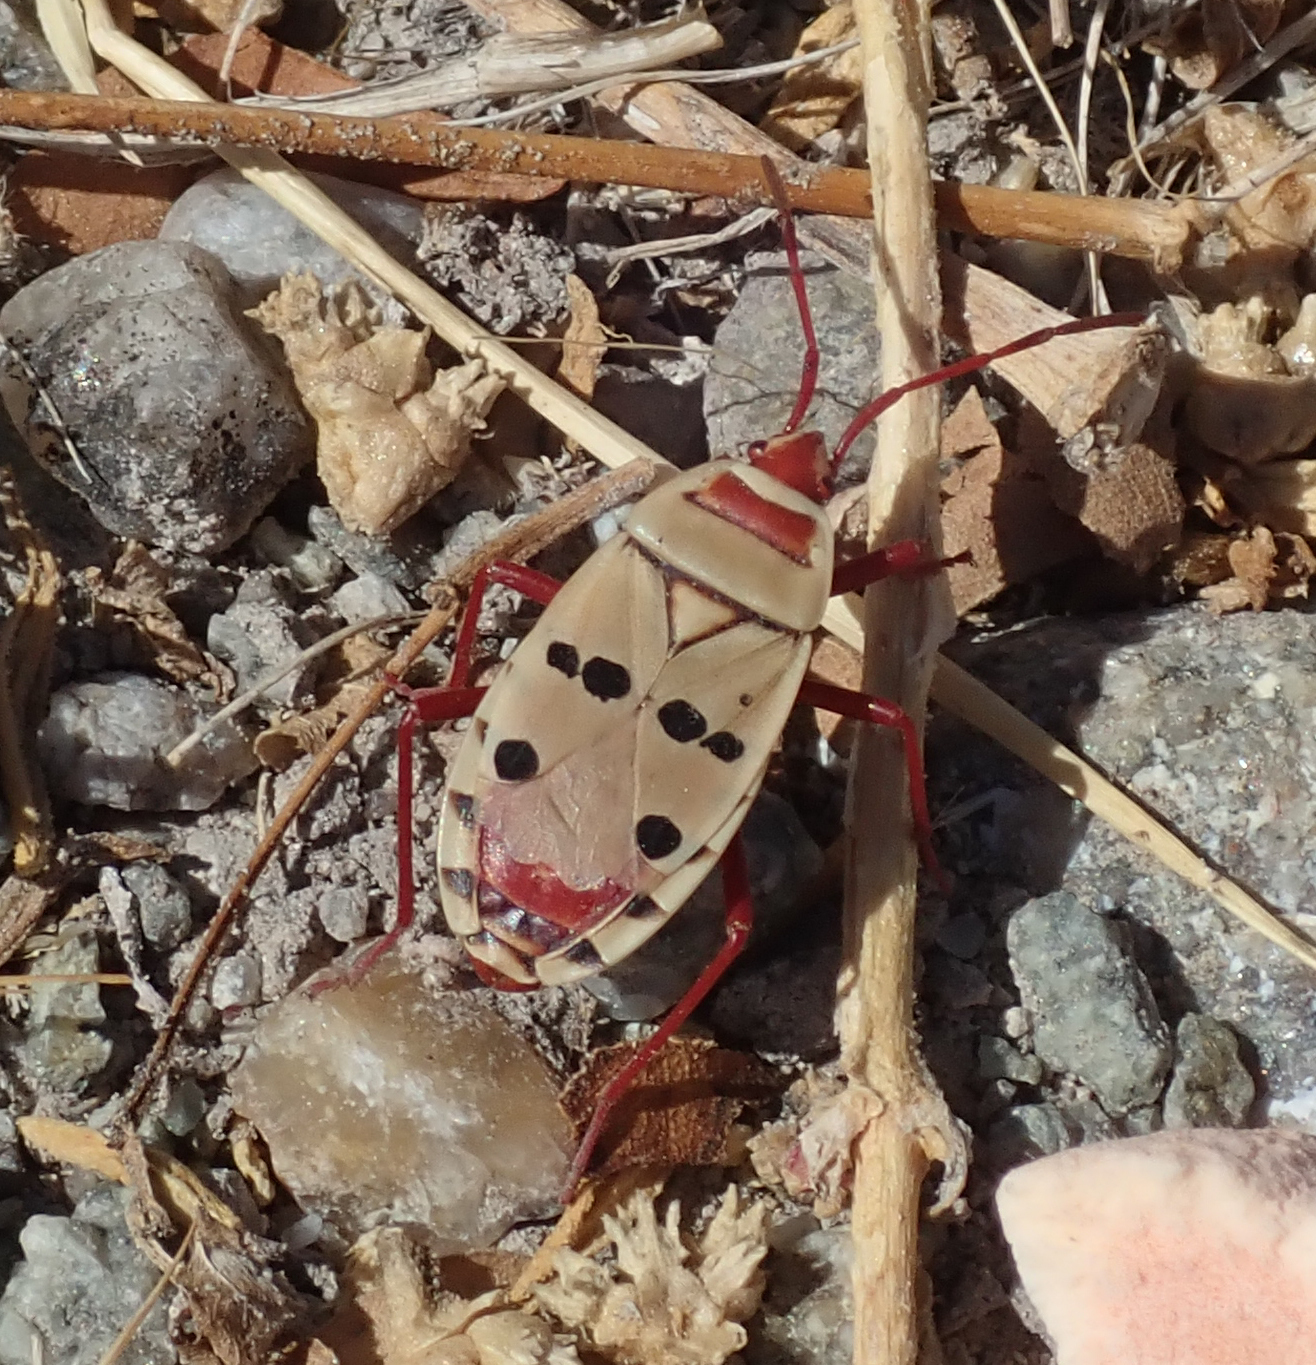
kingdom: Animalia
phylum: Arthropoda
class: Insecta
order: Hemiptera
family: Pyrrhocoridae
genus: Probergrothius
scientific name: Probergrothius sexpunctatus
